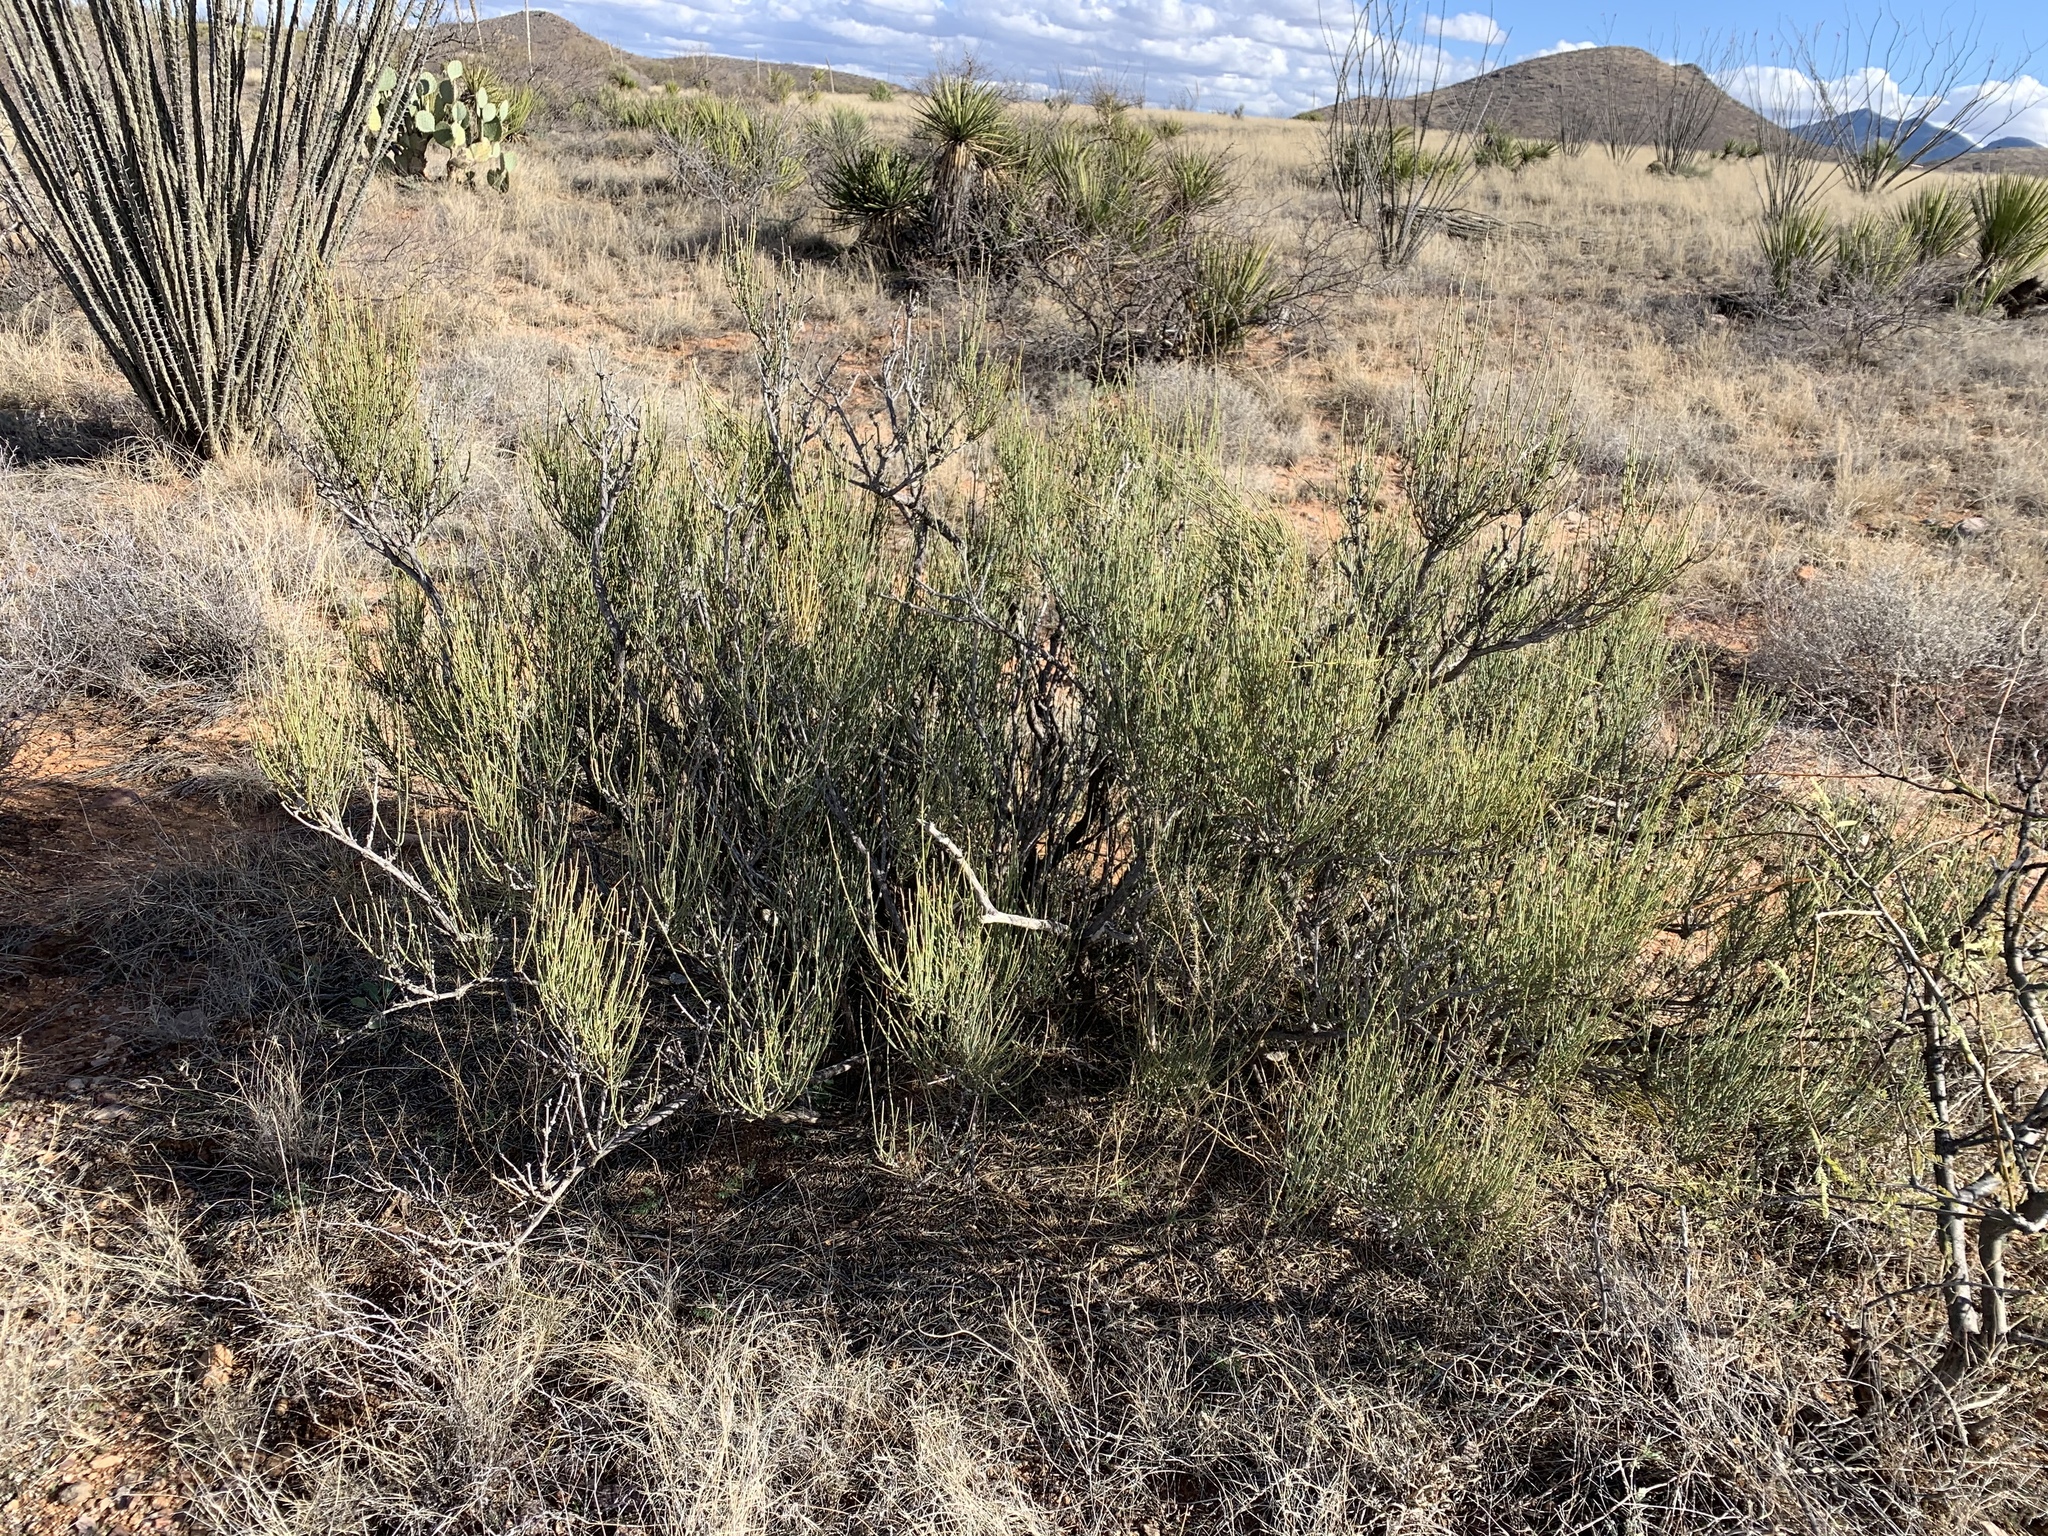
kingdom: Plantae
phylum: Tracheophyta
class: Gnetopsida
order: Ephedrales
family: Ephedraceae
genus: Ephedra
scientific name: Ephedra trifurca
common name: Mexican-tea
